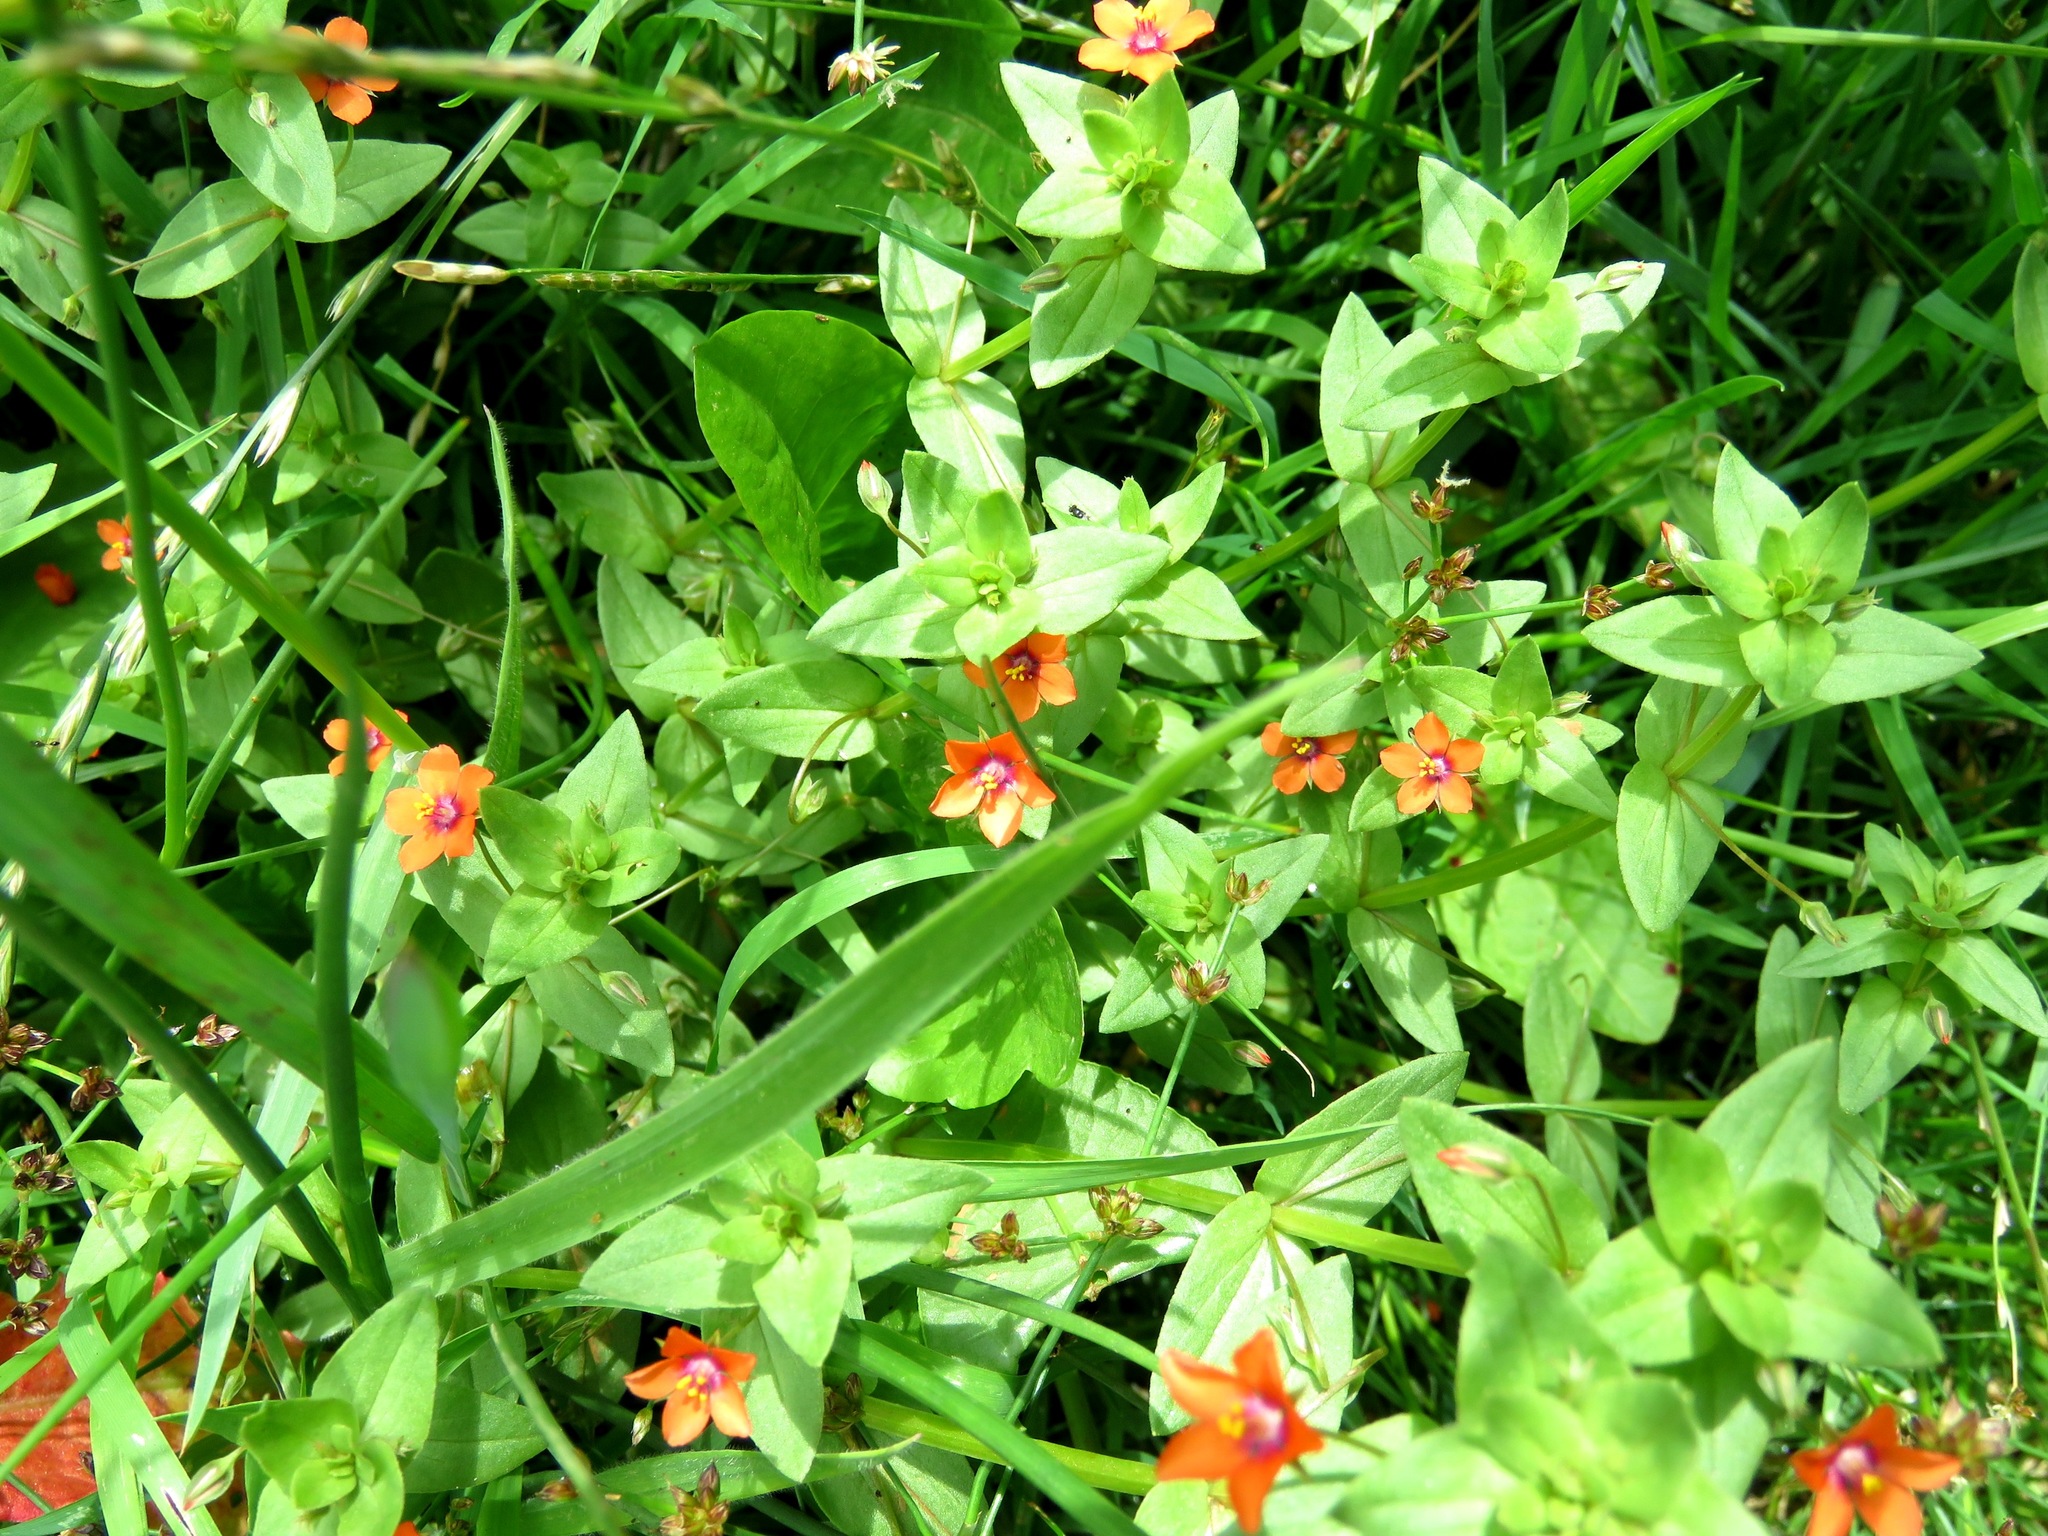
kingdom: Plantae
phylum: Tracheophyta
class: Magnoliopsida
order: Ericales
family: Primulaceae
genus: Lysimachia
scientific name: Lysimachia arvensis
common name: Scarlet pimpernel
